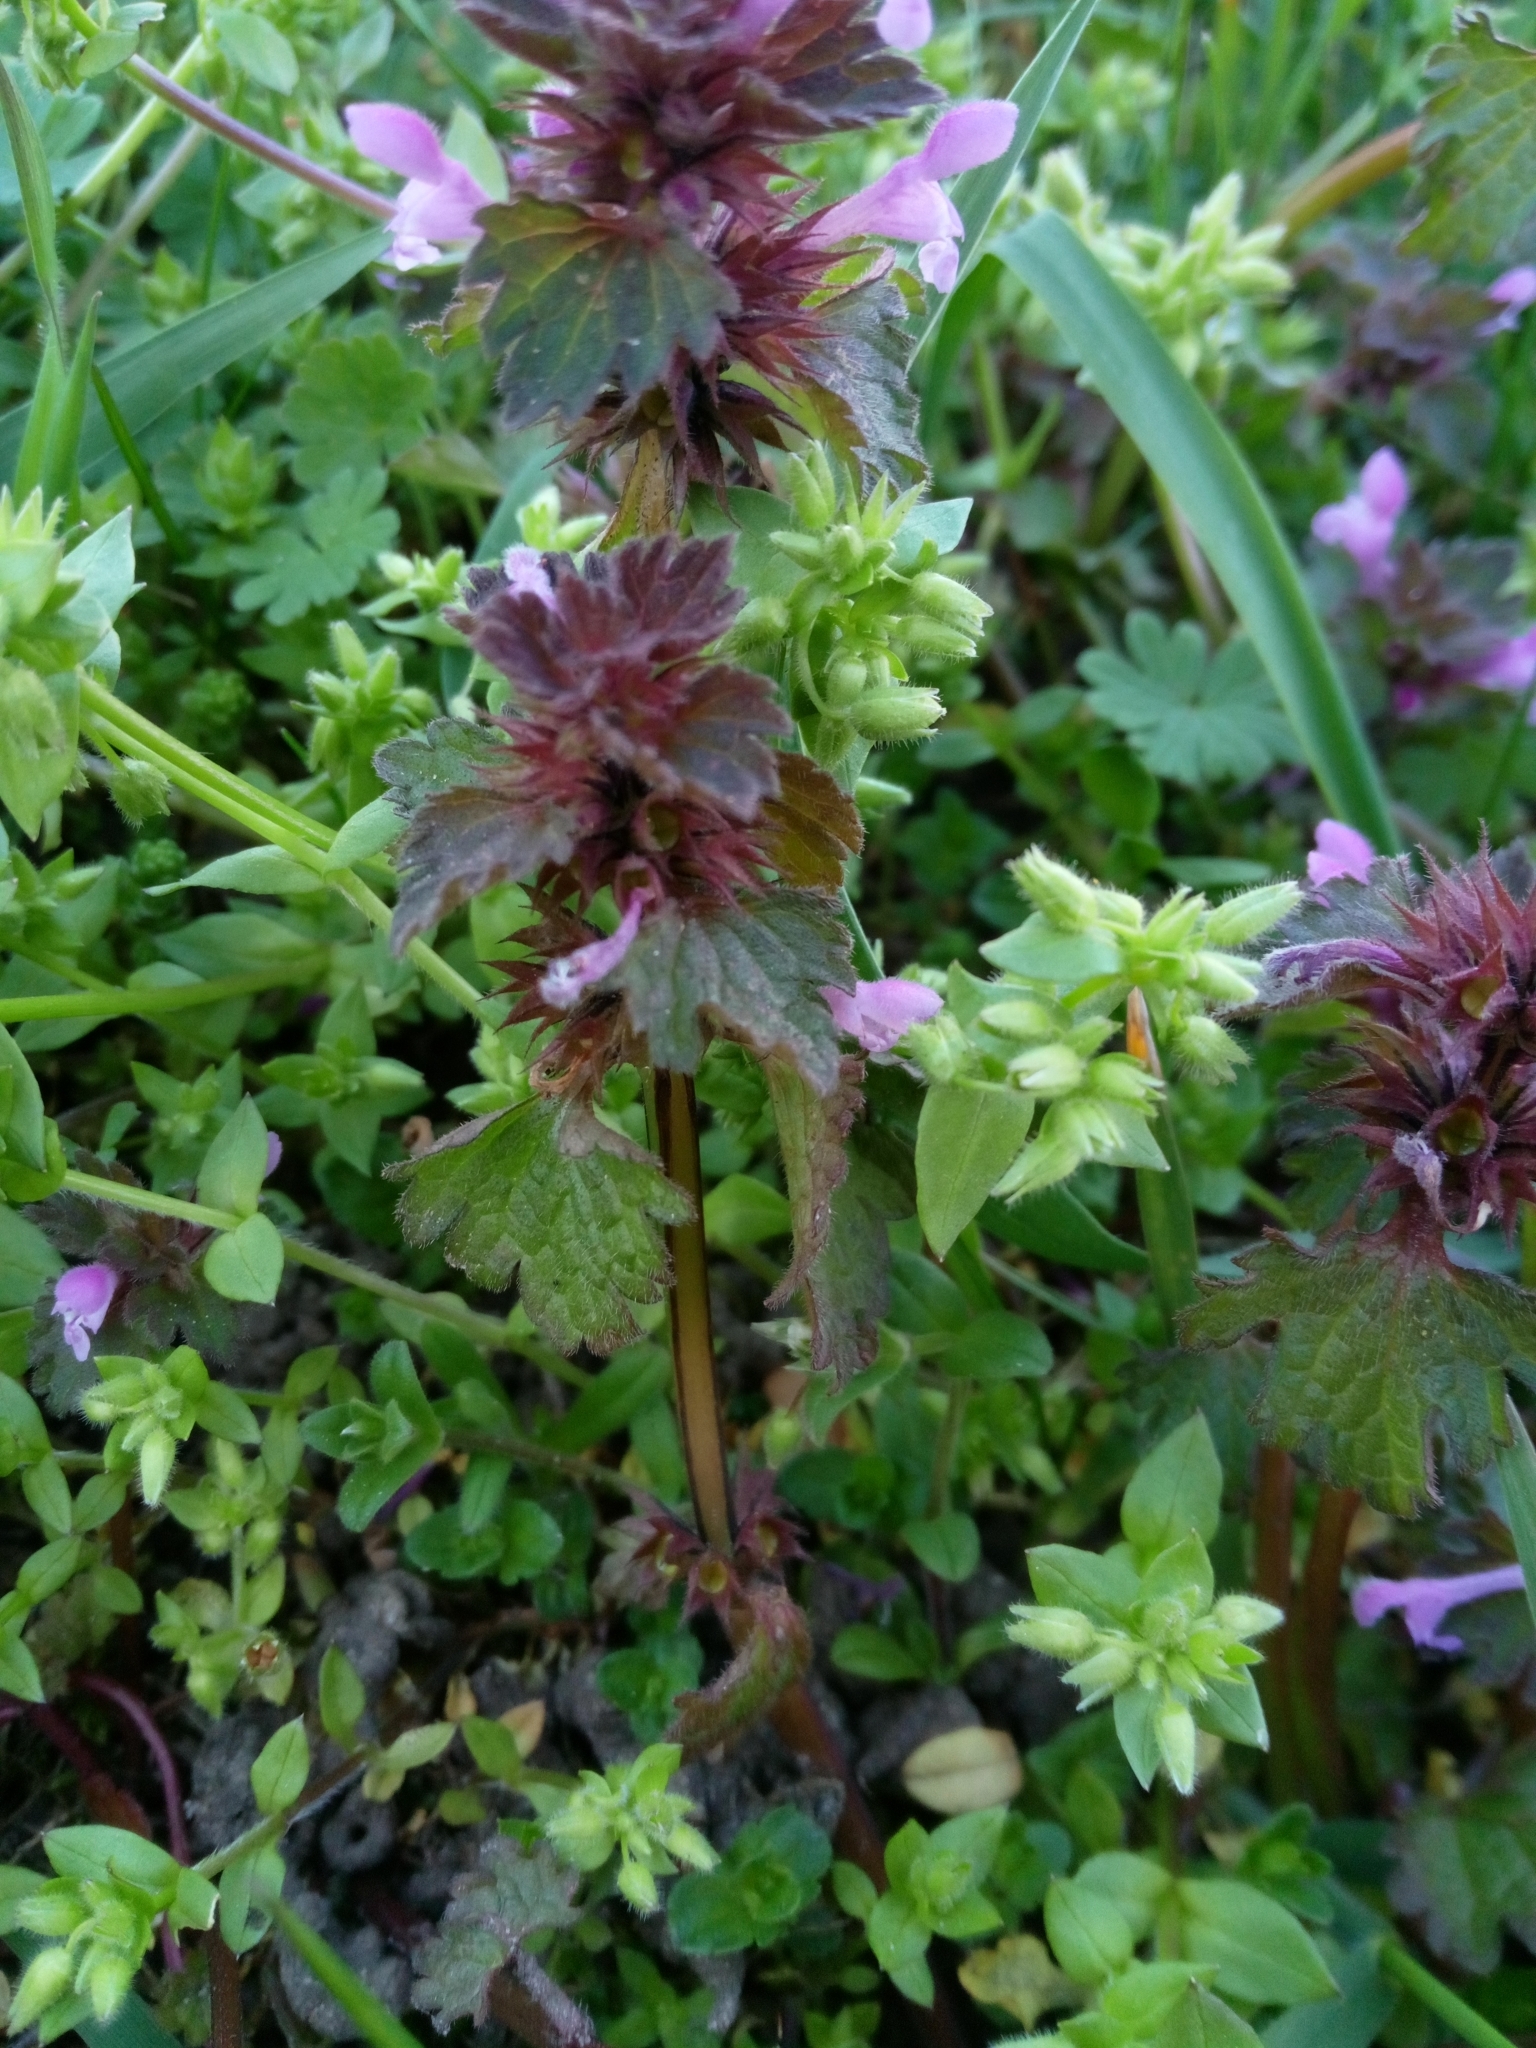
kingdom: Plantae
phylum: Tracheophyta
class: Magnoliopsida
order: Lamiales
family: Lamiaceae
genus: Lamium
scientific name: Lamium hybridum
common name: Cut-leaved dead-nettle
